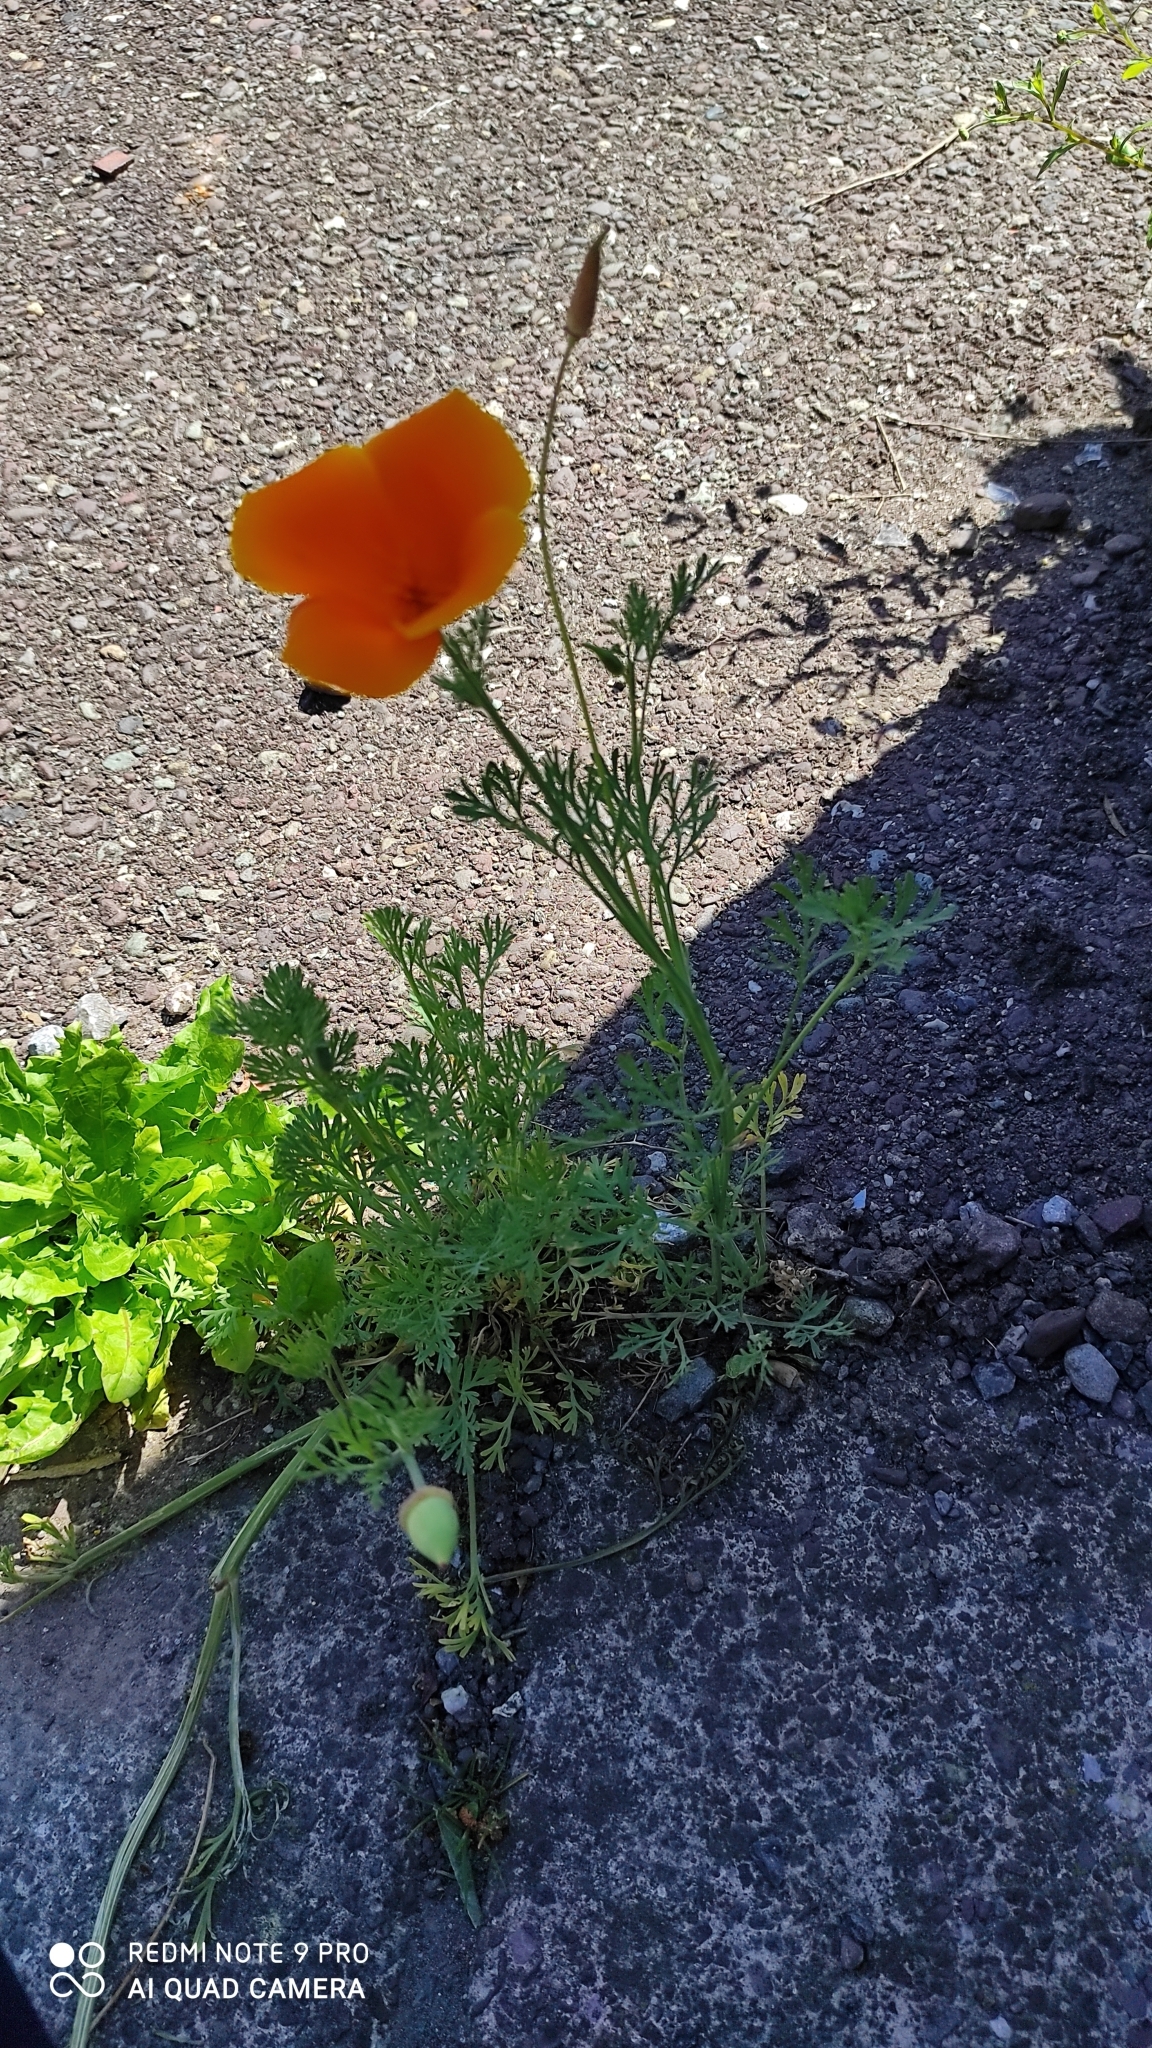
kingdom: Plantae
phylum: Tracheophyta
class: Magnoliopsida
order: Ranunculales
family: Papaveraceae
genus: Eschscholzia
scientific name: Eschscholzia californica
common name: California poppy
